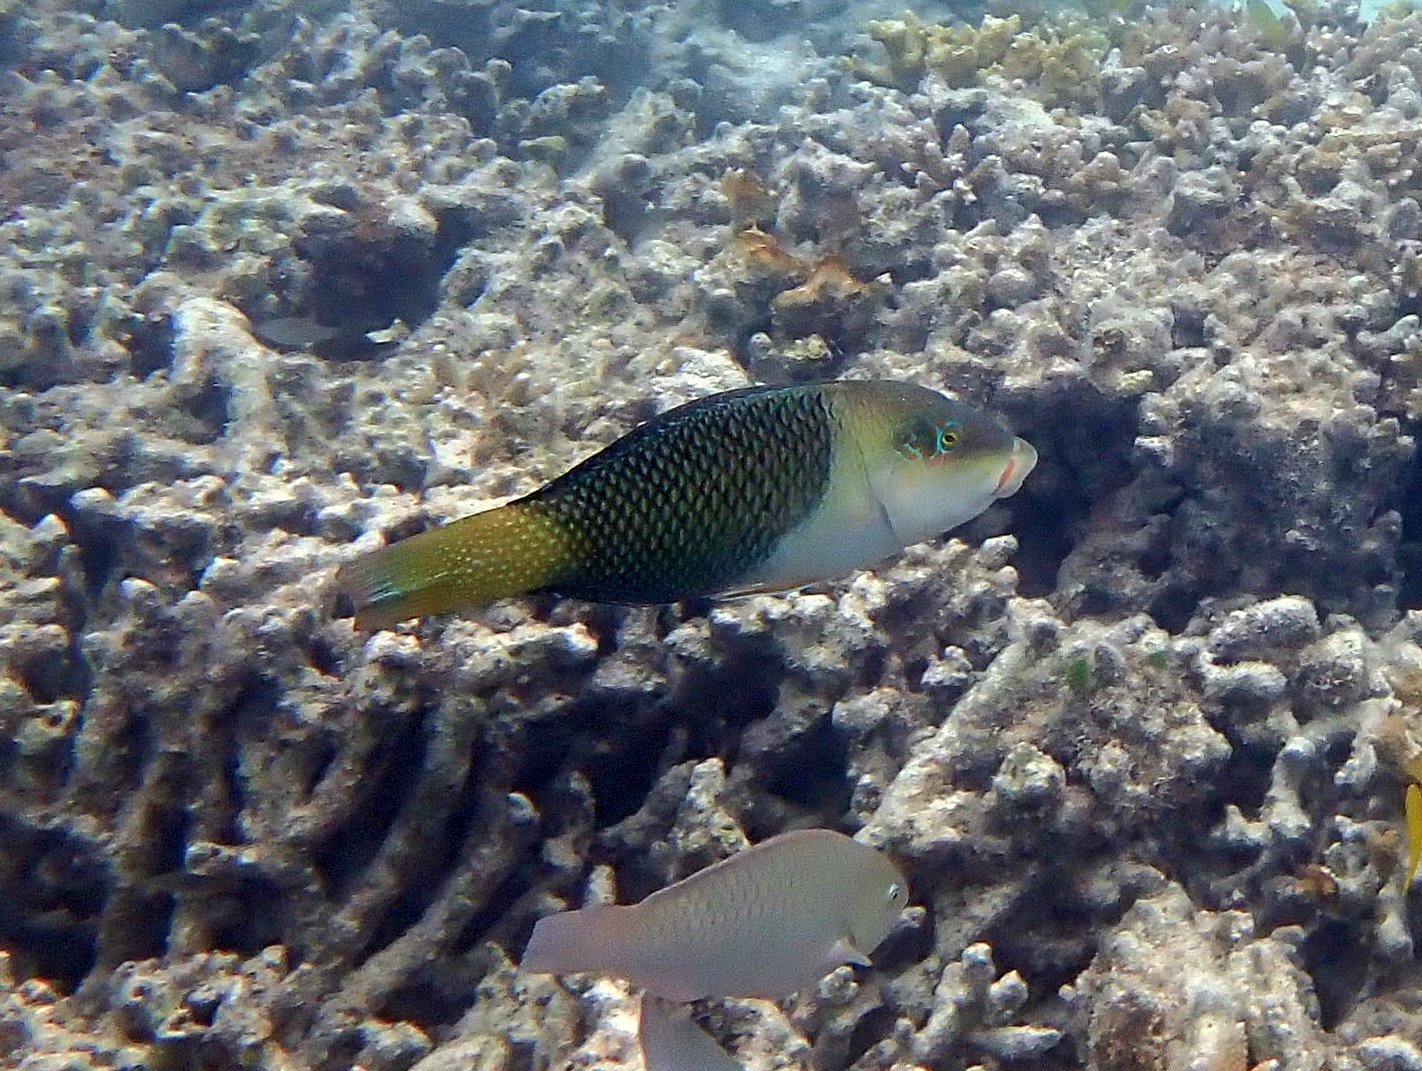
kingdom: Animalia
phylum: Chordata
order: Perciformes
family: Labridae
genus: Hemigymnus
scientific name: Hemigymnus melapterus
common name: Blackeye thicklip
